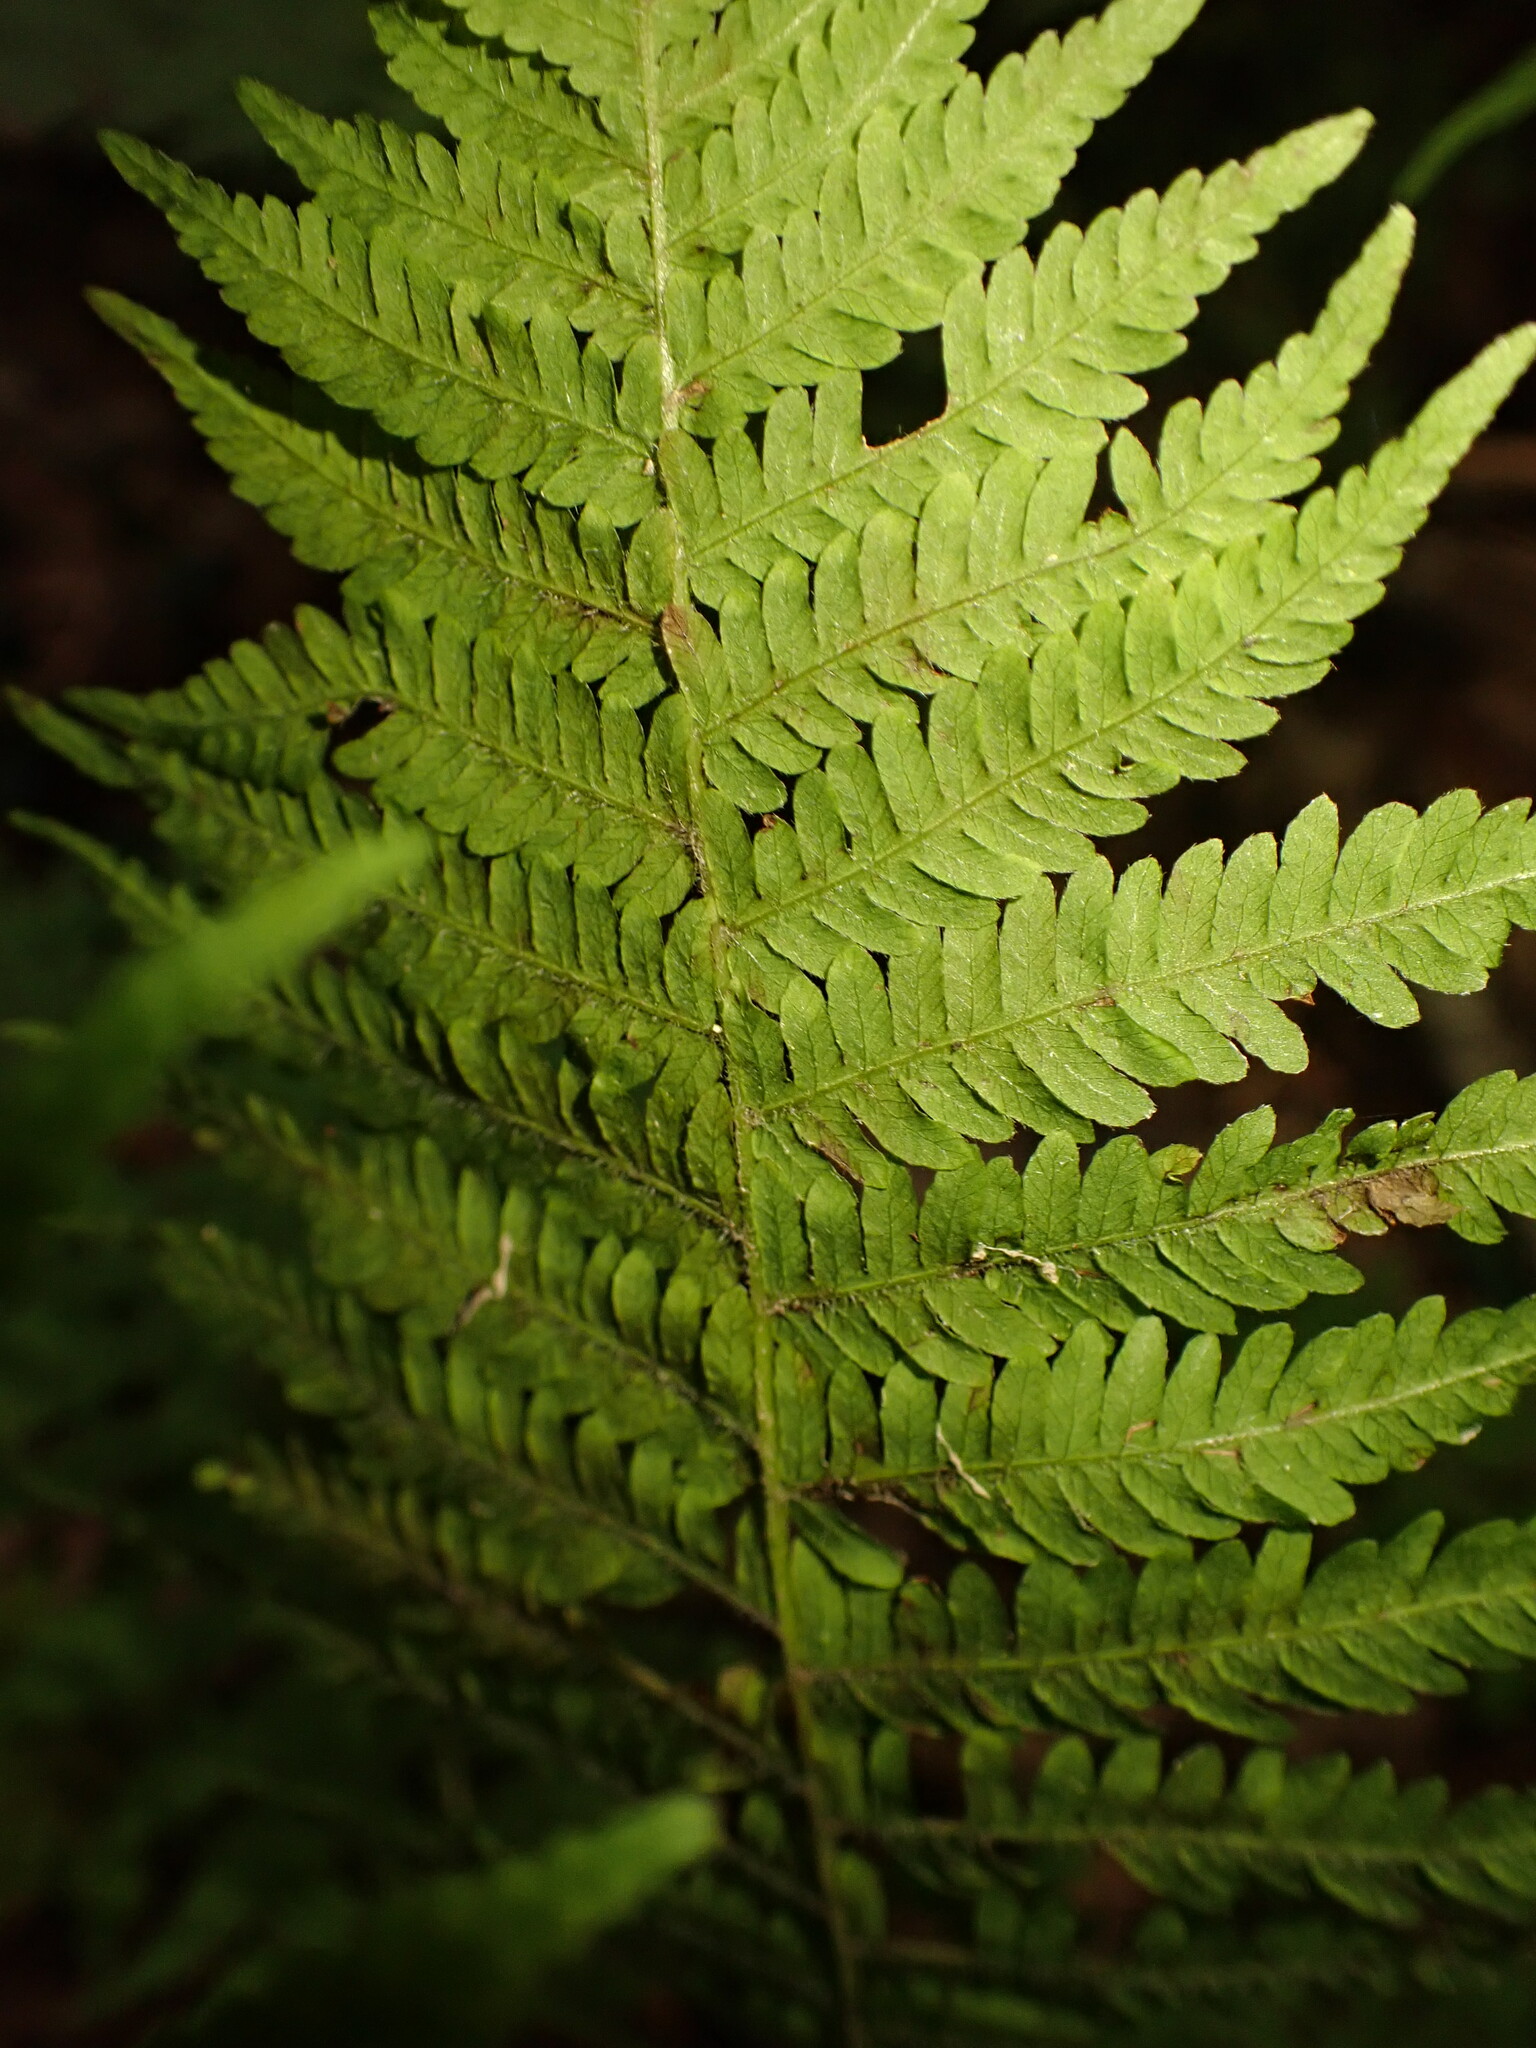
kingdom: Plantae
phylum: Tracheophyta
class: Polypodiopsida
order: Polypodiales
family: Thelypteridaceae
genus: Amauropelta
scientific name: Amauropelta noveboracensis
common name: New york fern
